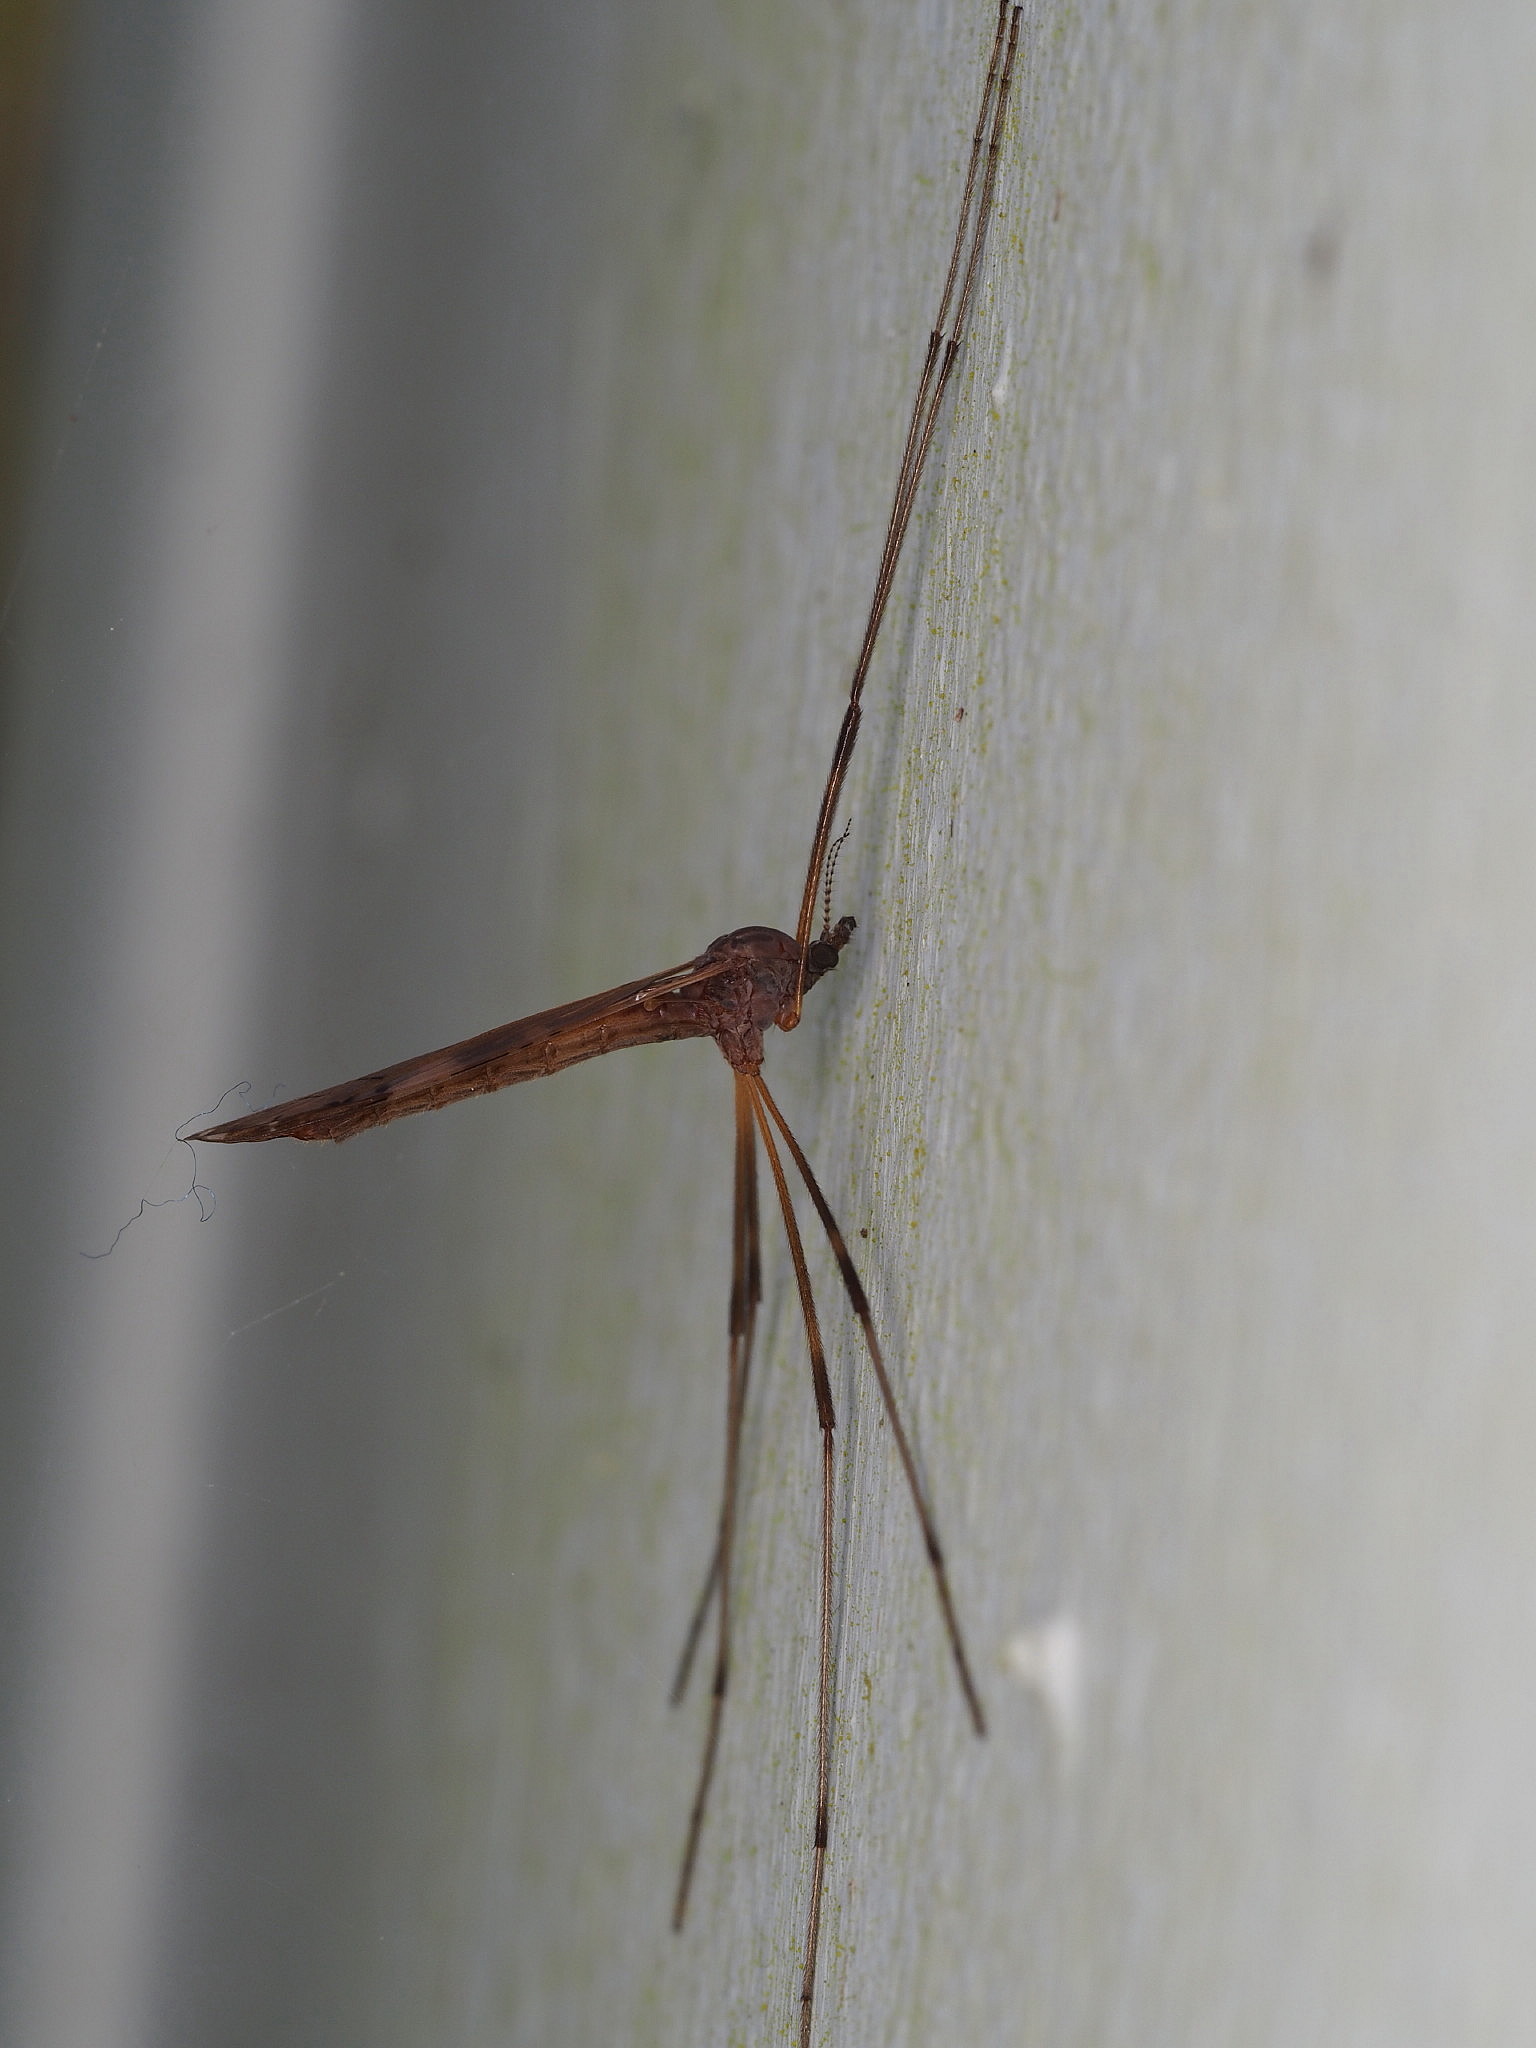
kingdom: Animalia
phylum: Arthropoda
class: Insecta
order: Diptera
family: Limoniidae
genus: Paralimnophila
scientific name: Paralimnophila skusei
